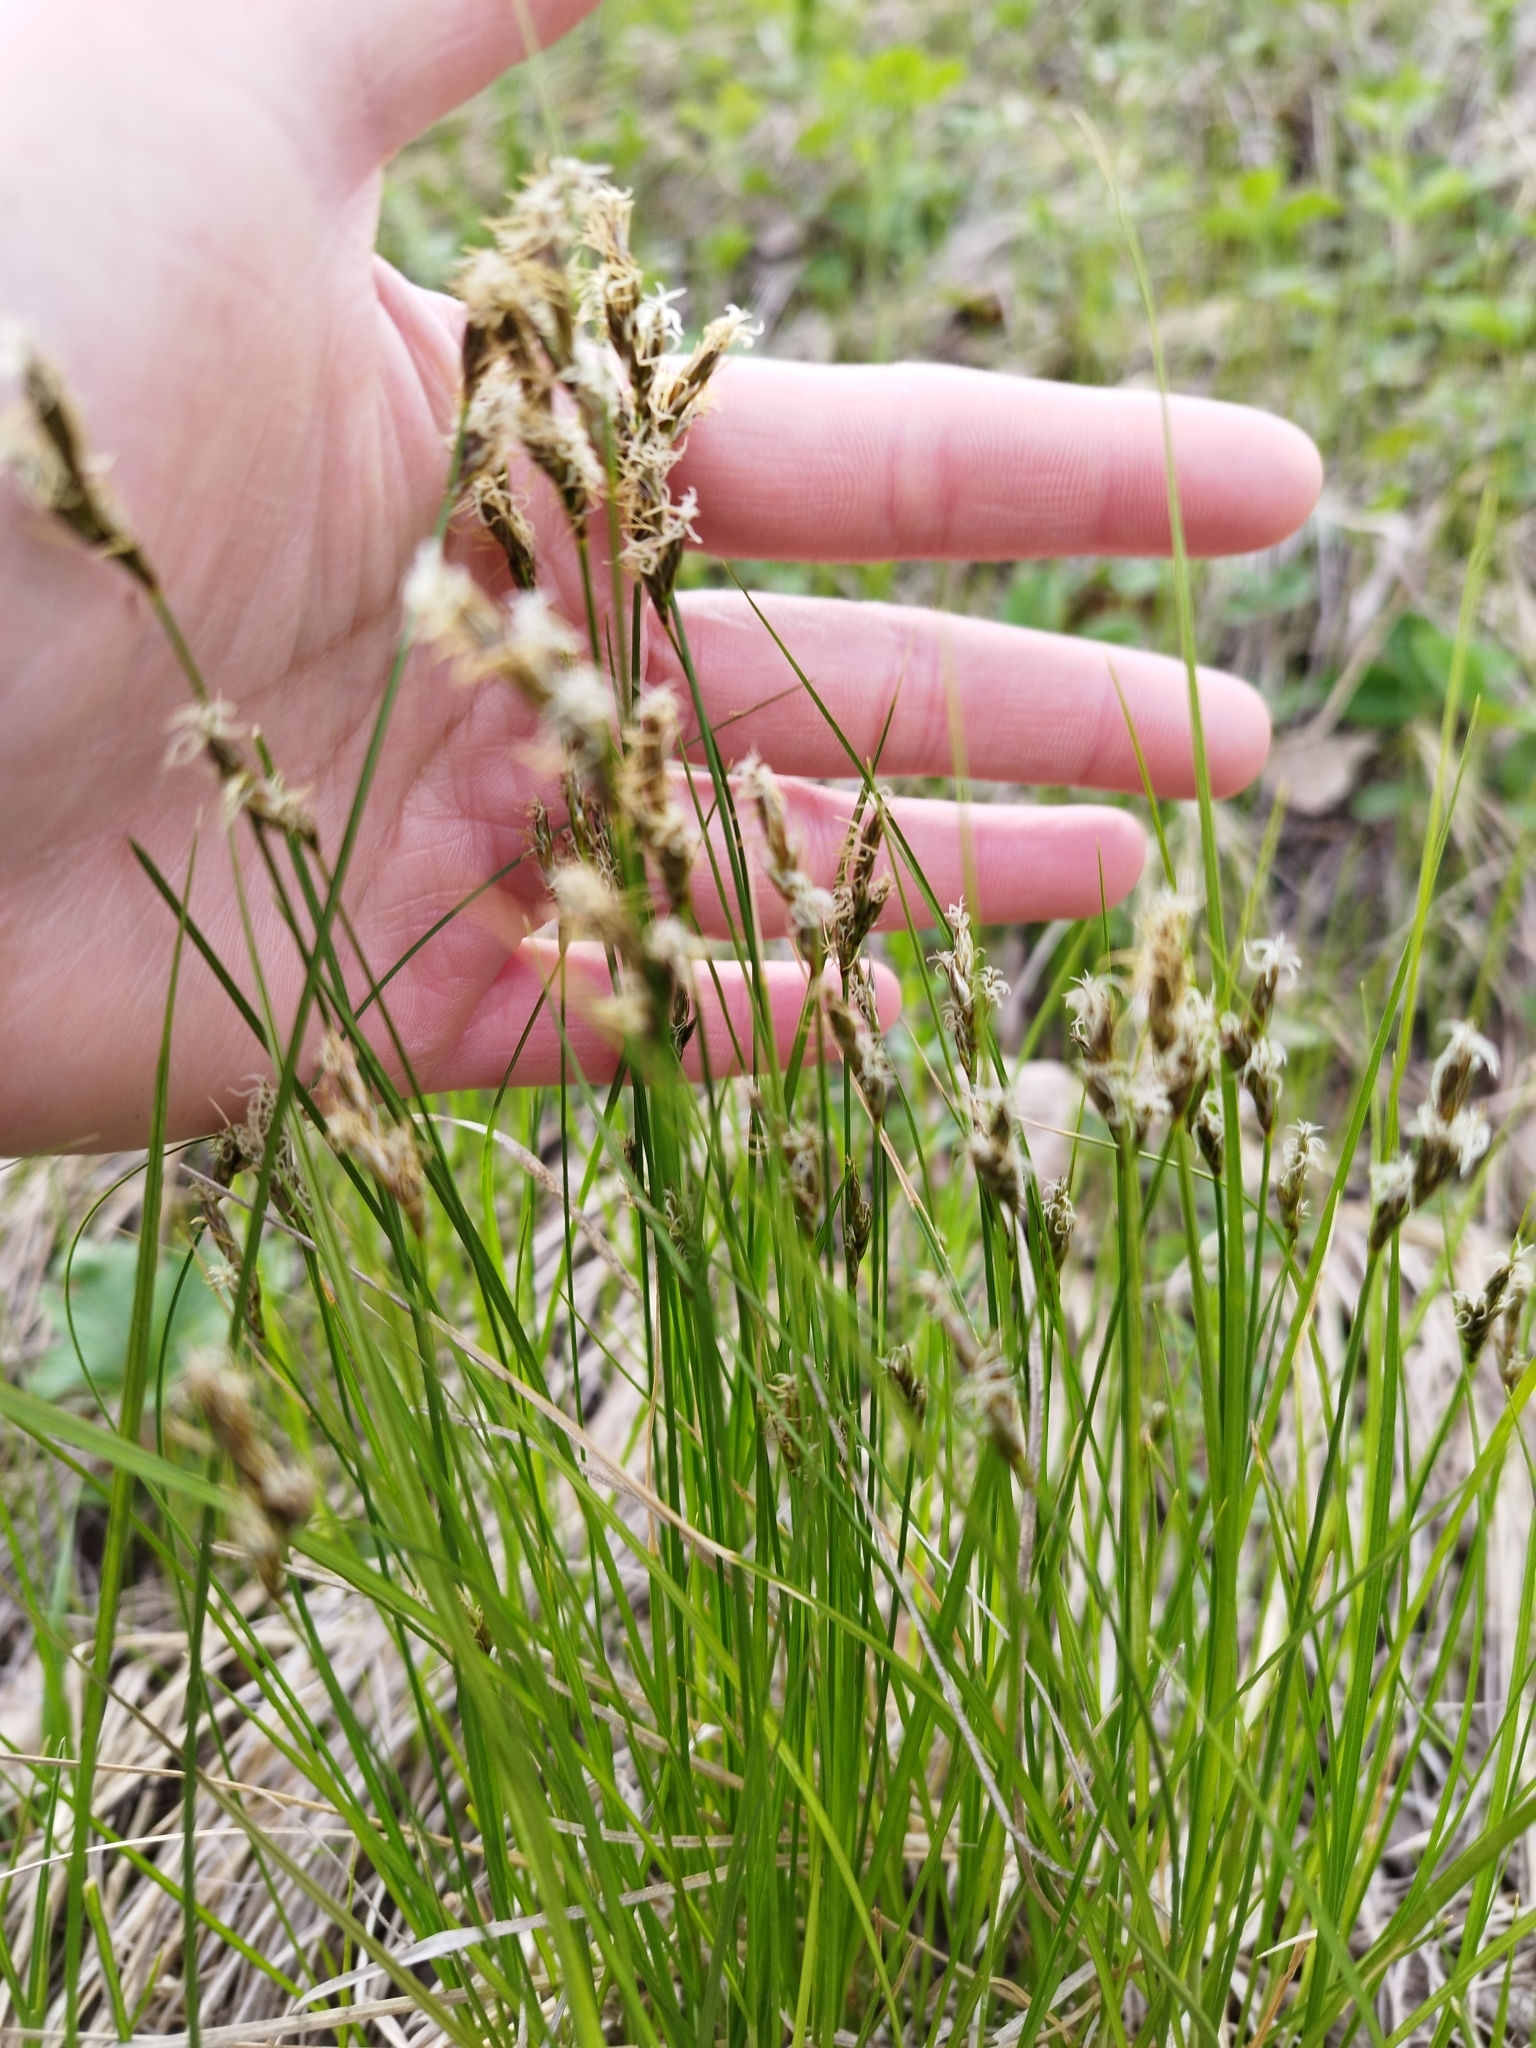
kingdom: Plantae
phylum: Tracheophyta
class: Liliopsida
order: Poales
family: Cyperaceae
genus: Carex
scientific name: Carex praecox
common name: Early sedge
